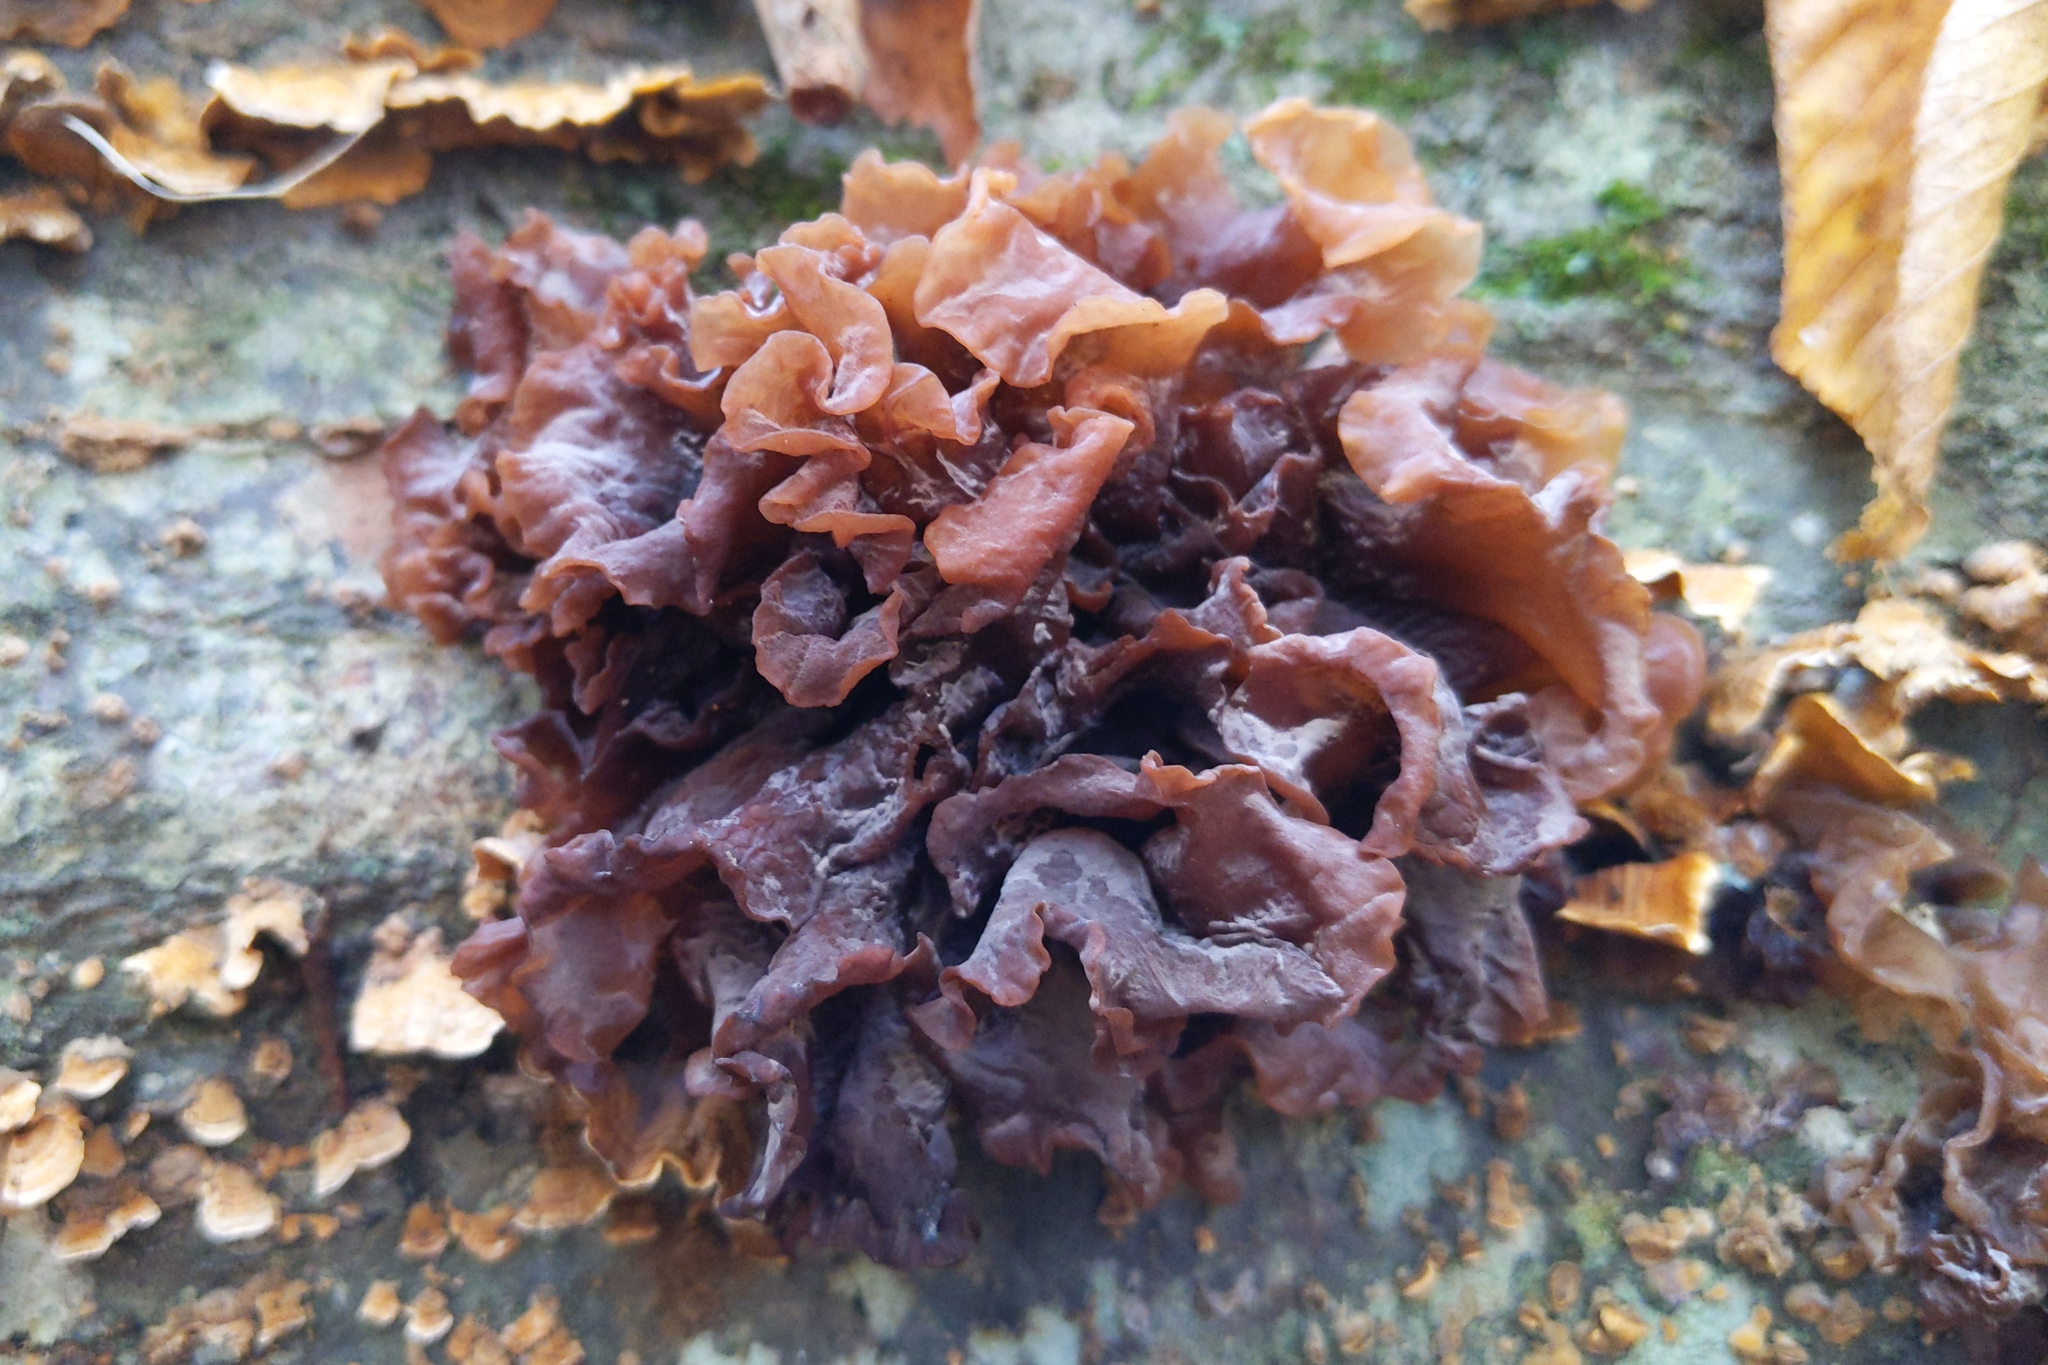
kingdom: Fungi
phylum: Basidiomycota
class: Tremellomycetes
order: Tremellales
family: Tremellaceae
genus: Phaeotremella
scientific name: Phaeotremella foliacea
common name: Leafy brain
